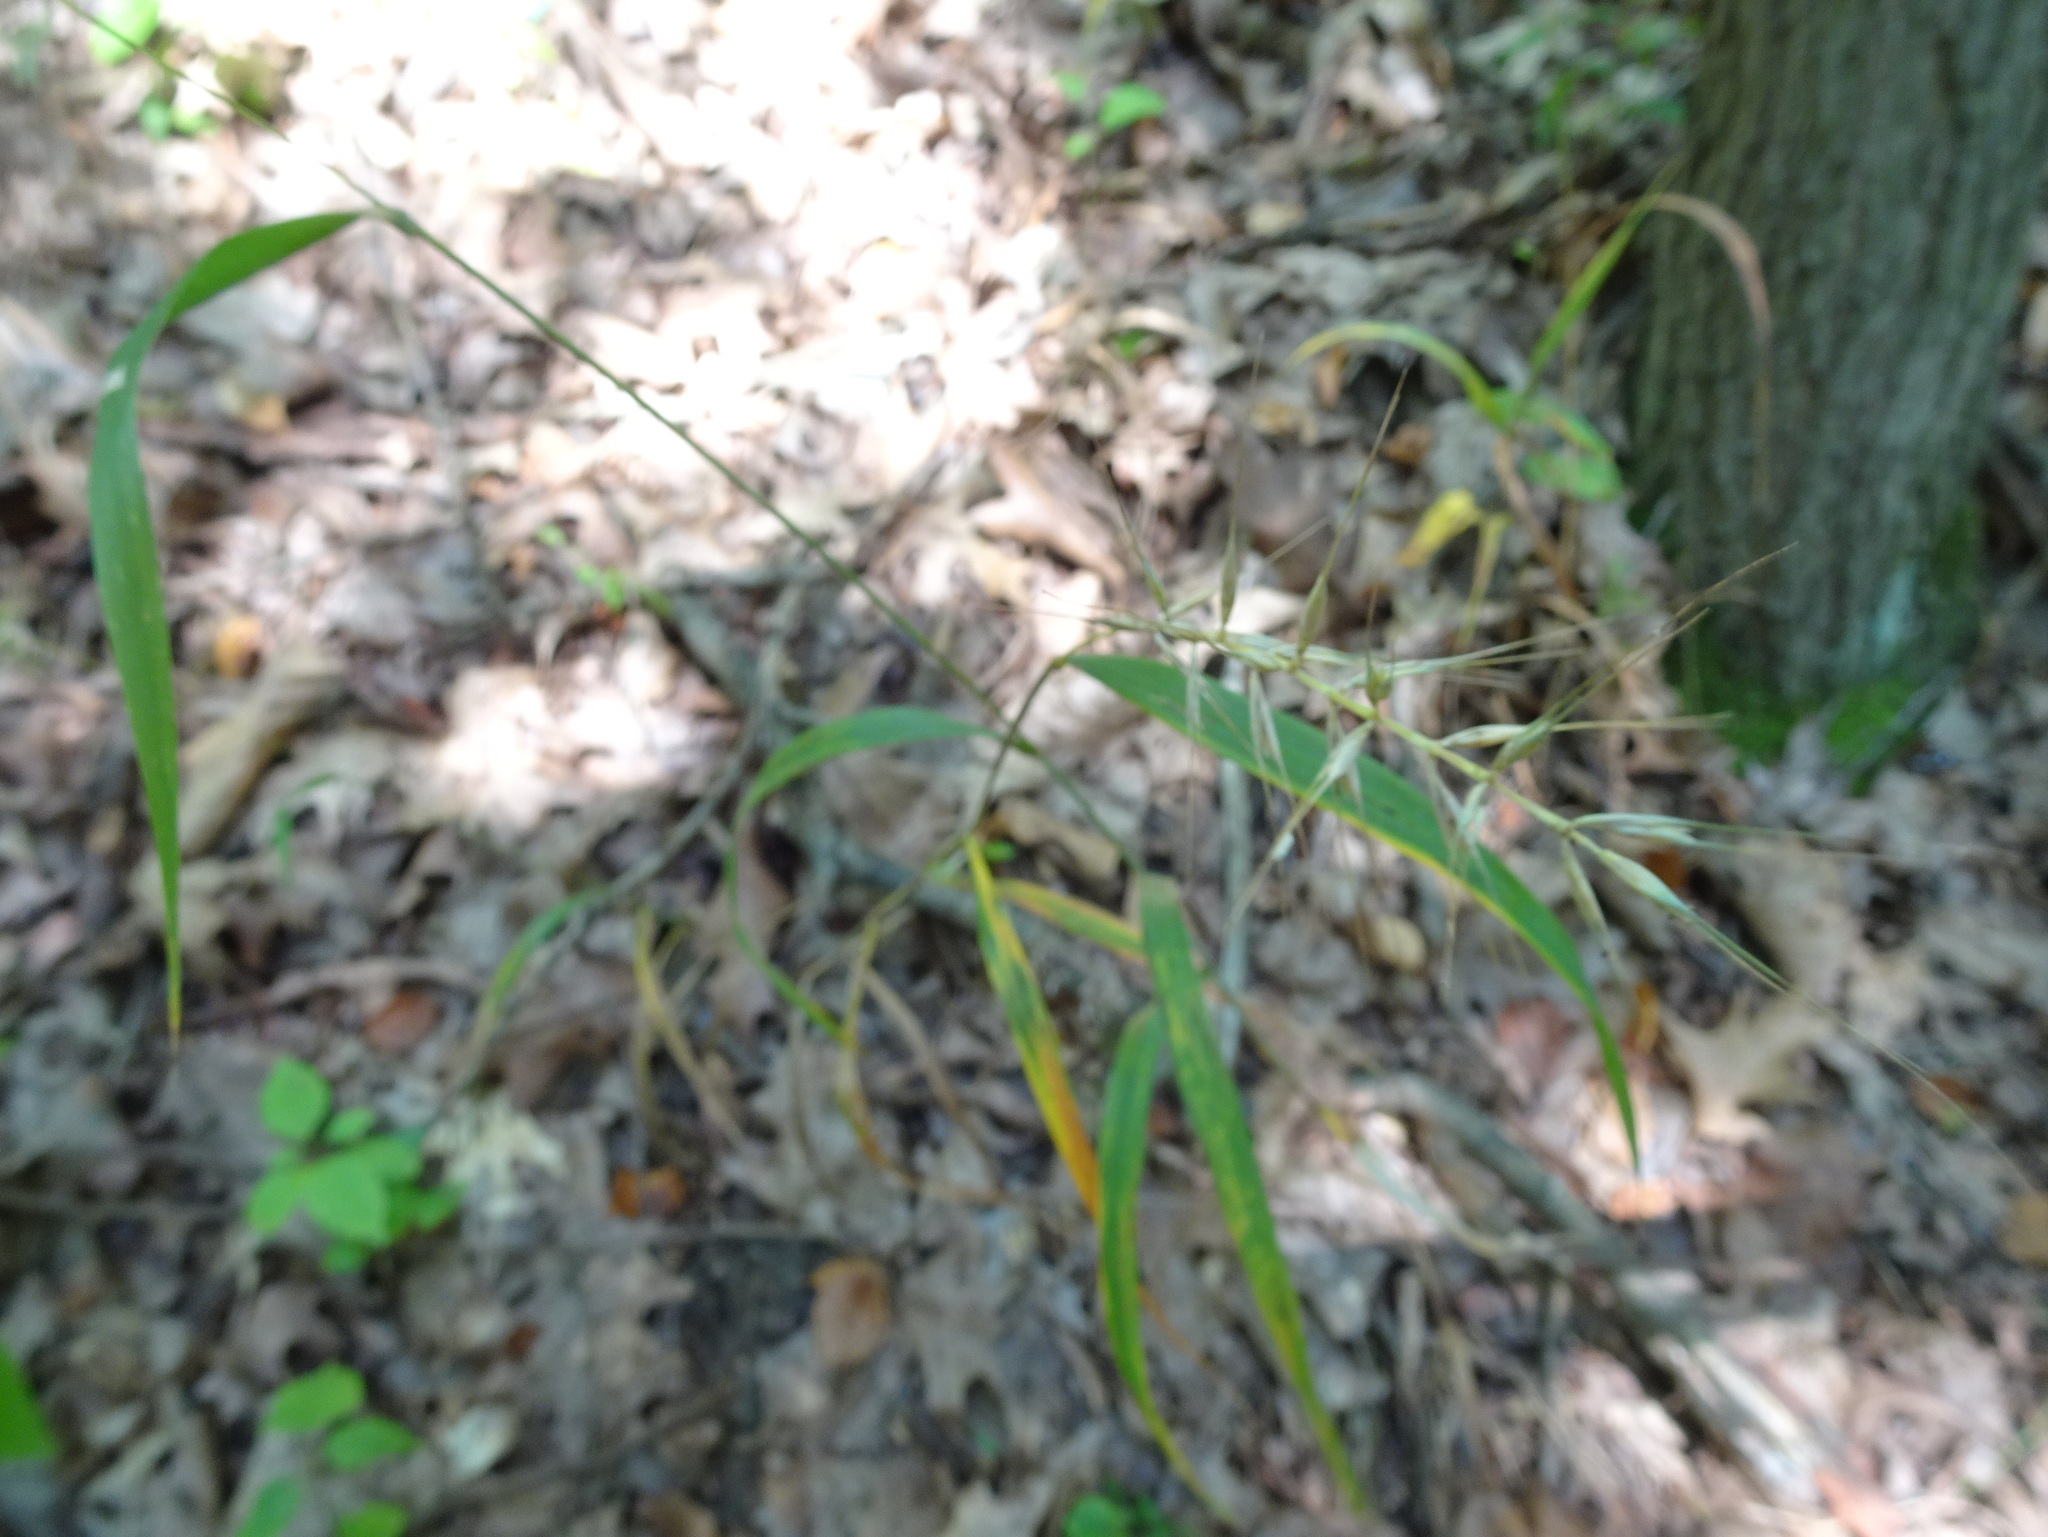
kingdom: Plantae
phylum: Tracheophyta
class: Liliopsida
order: Poales
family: Poaceae
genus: Elymus
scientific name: Elymus hystrix
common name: Bottlebrush grass
